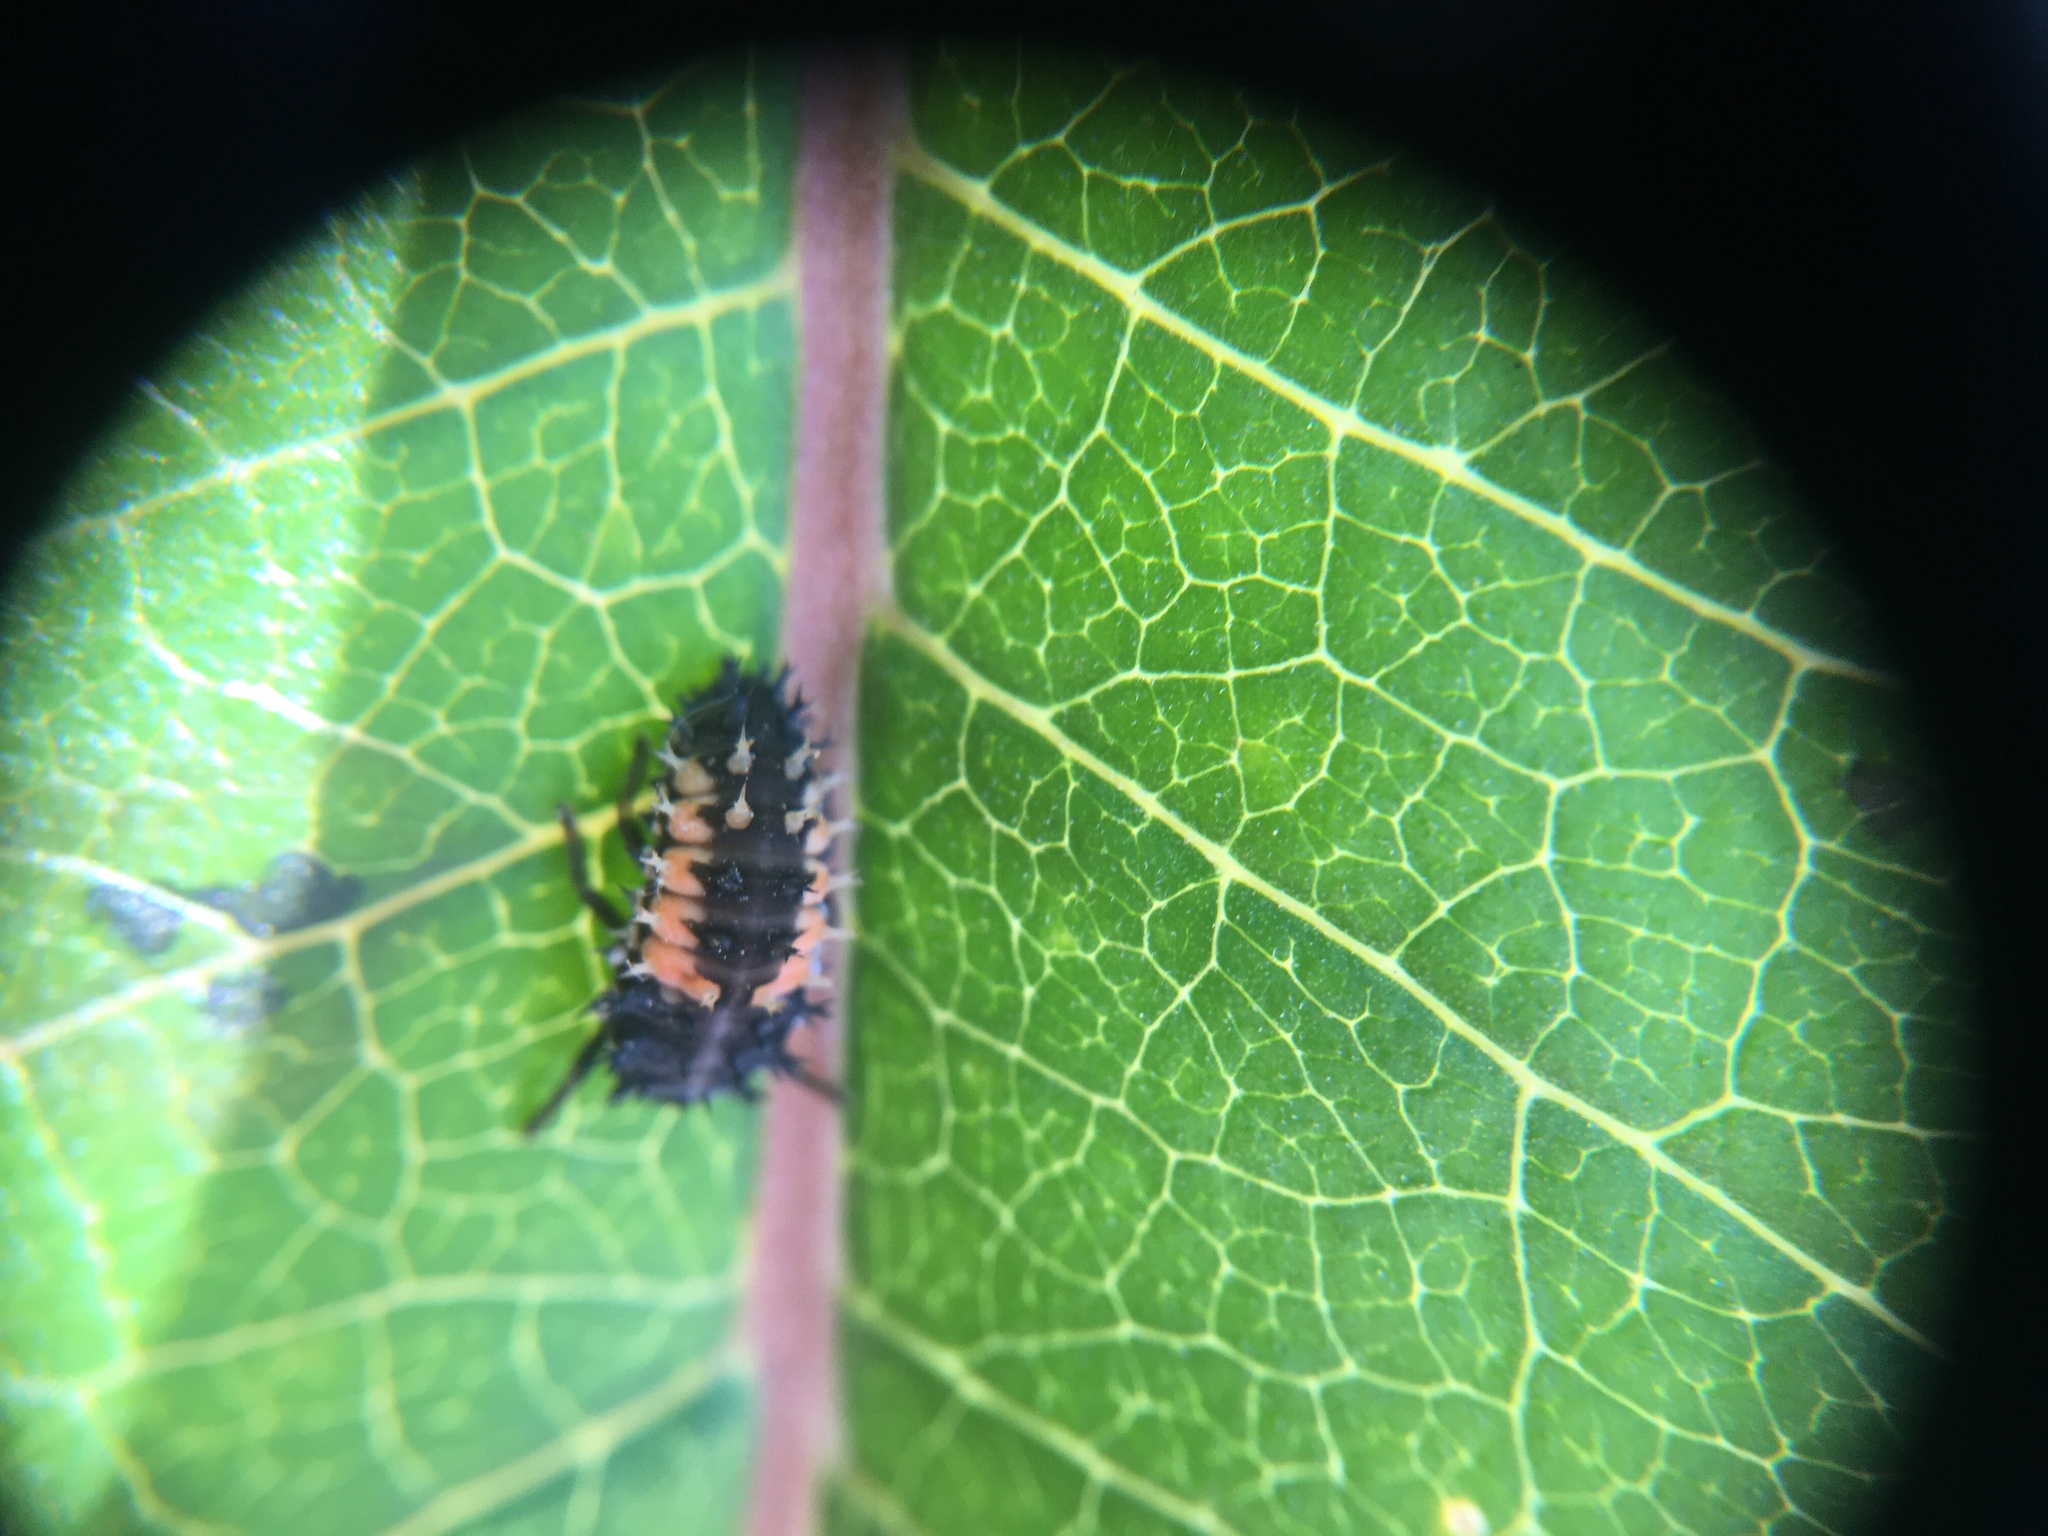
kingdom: Animalia
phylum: Arthropoda
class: Insecta
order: Coleoptera
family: Coccinellidae
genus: Harmonia
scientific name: Harmonia axyridis
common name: Harlequin ladybird
